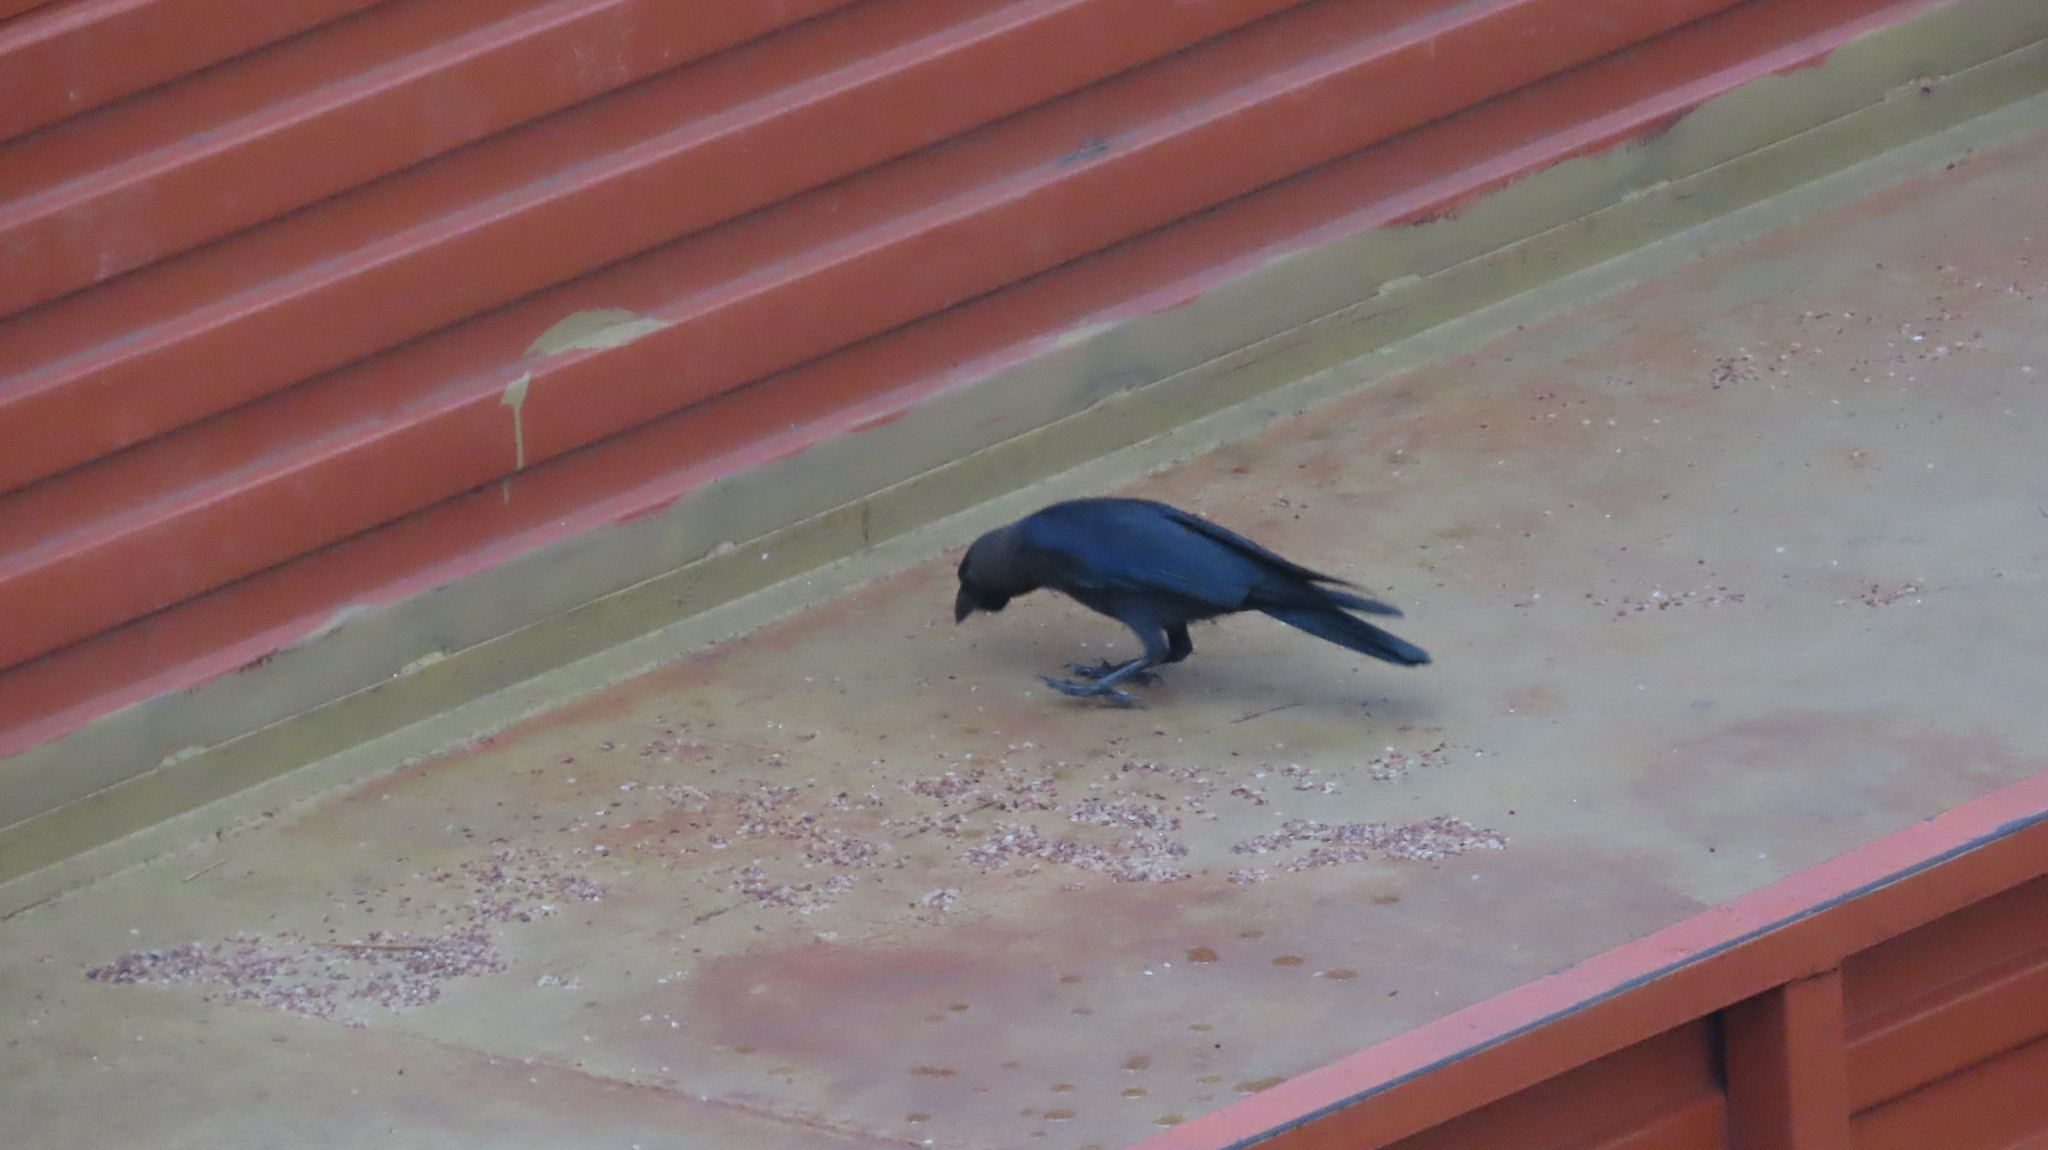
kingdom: Animalia
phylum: Chordata
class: Aves
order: Passeriformes
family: Corvidae
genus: Corvus
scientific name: Corvus splendens
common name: House crow
